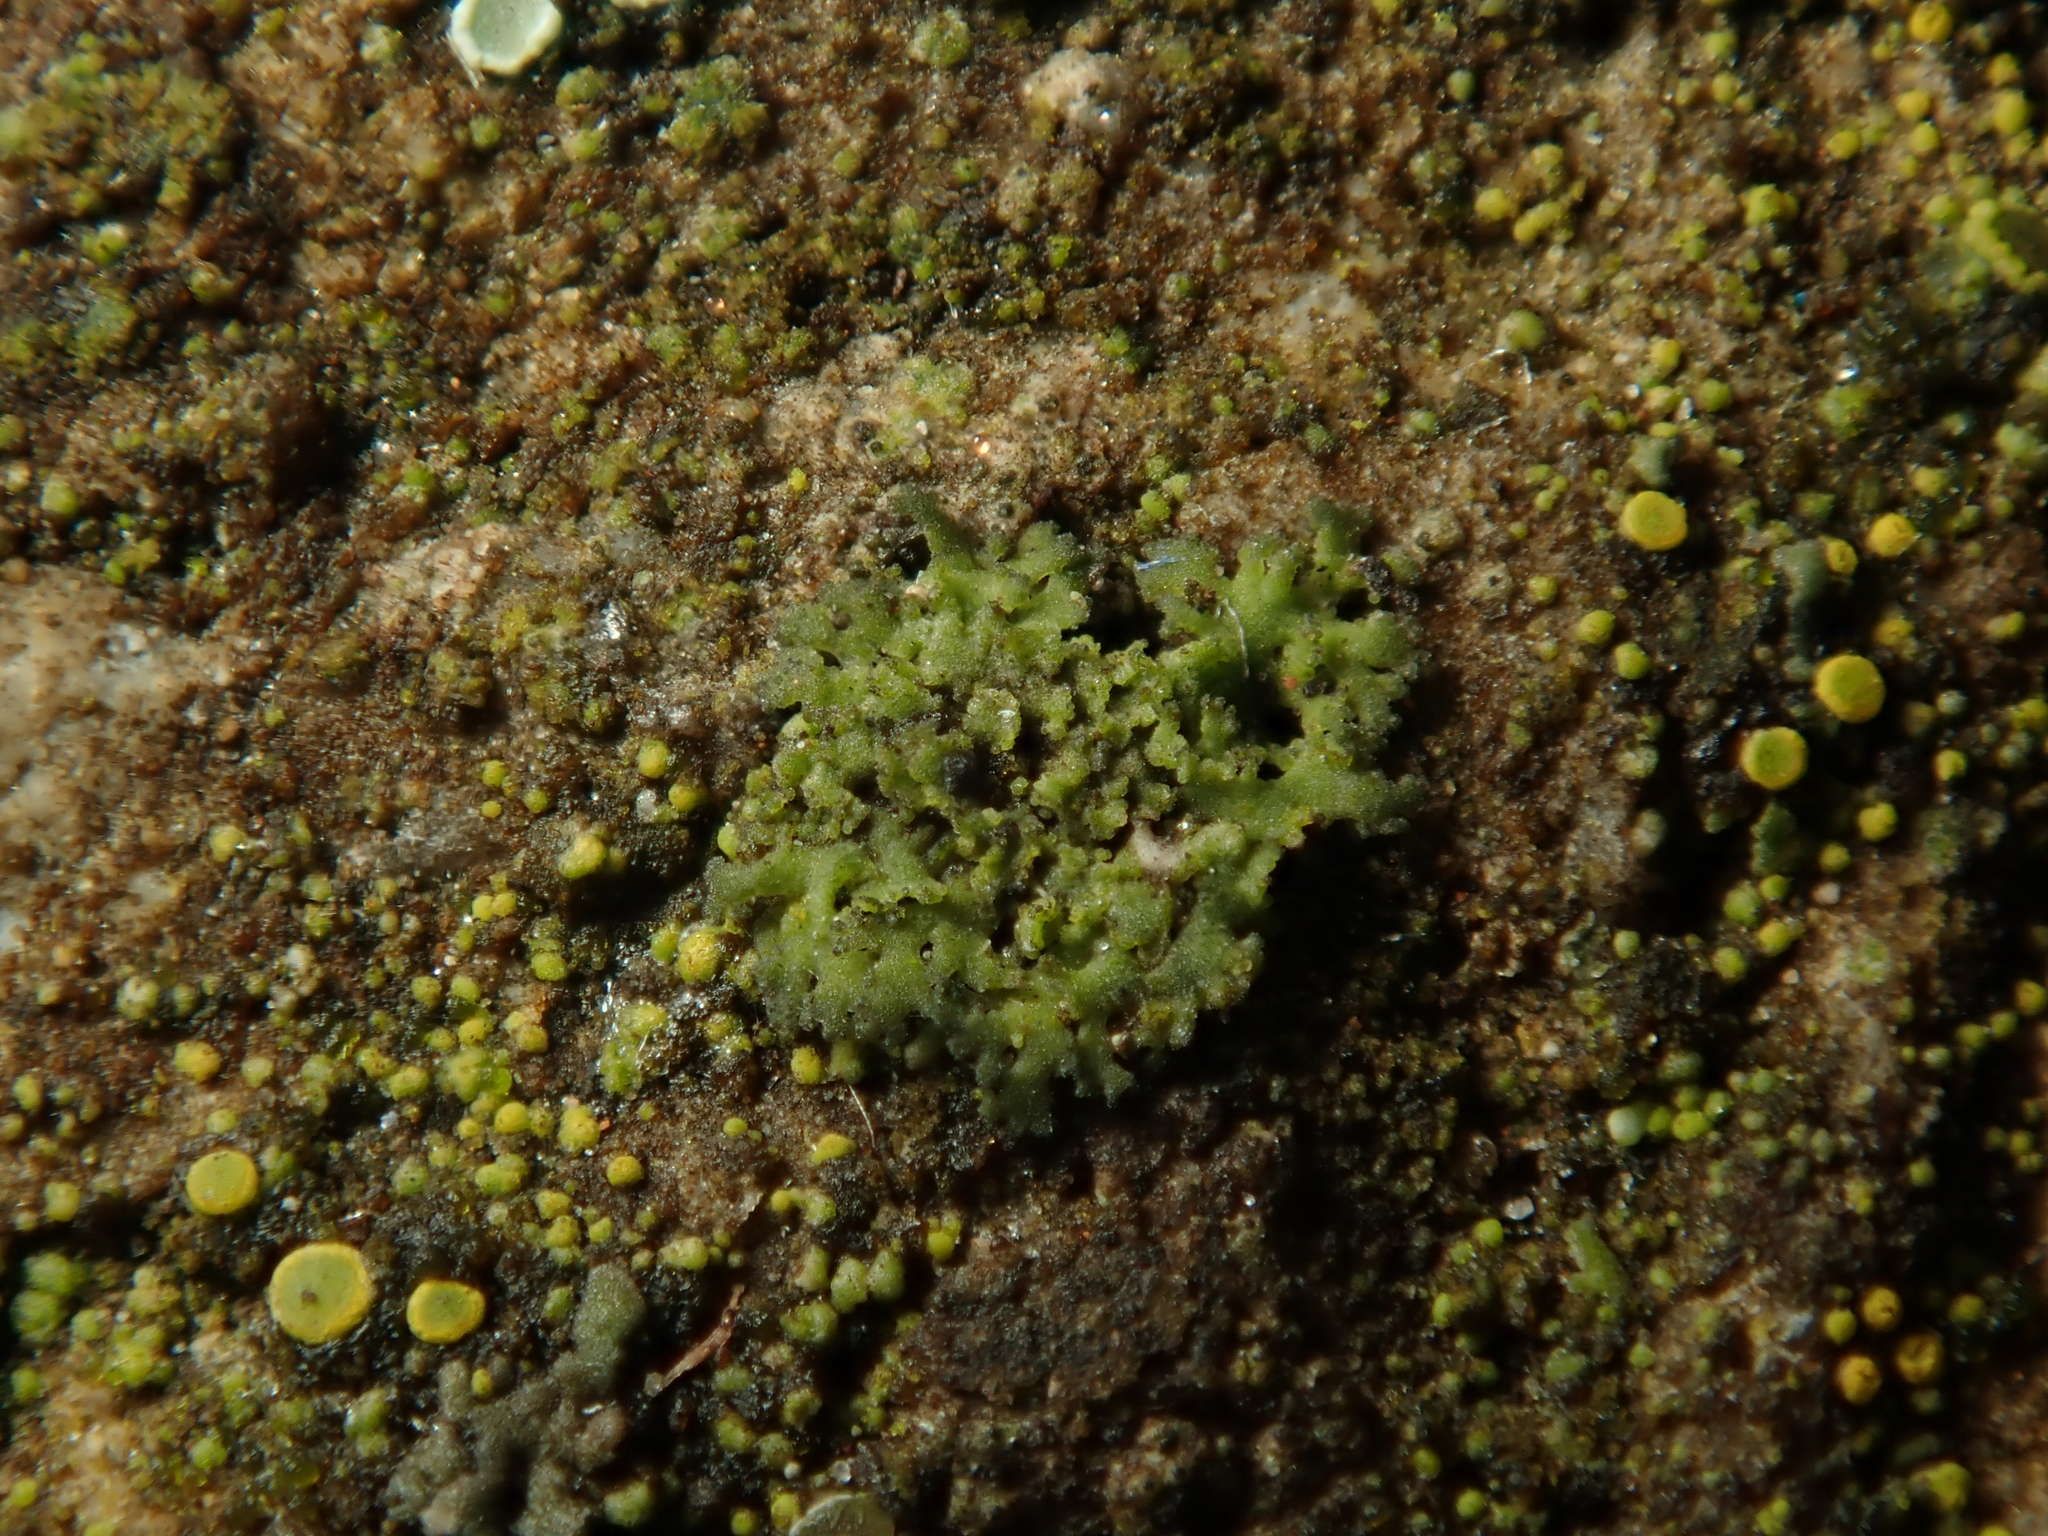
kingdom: Fungi
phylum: Ascomycota
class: Lecanoromycetes
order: Caliciales
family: Physciaceae
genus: Physciella
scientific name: Physciella nigricans
